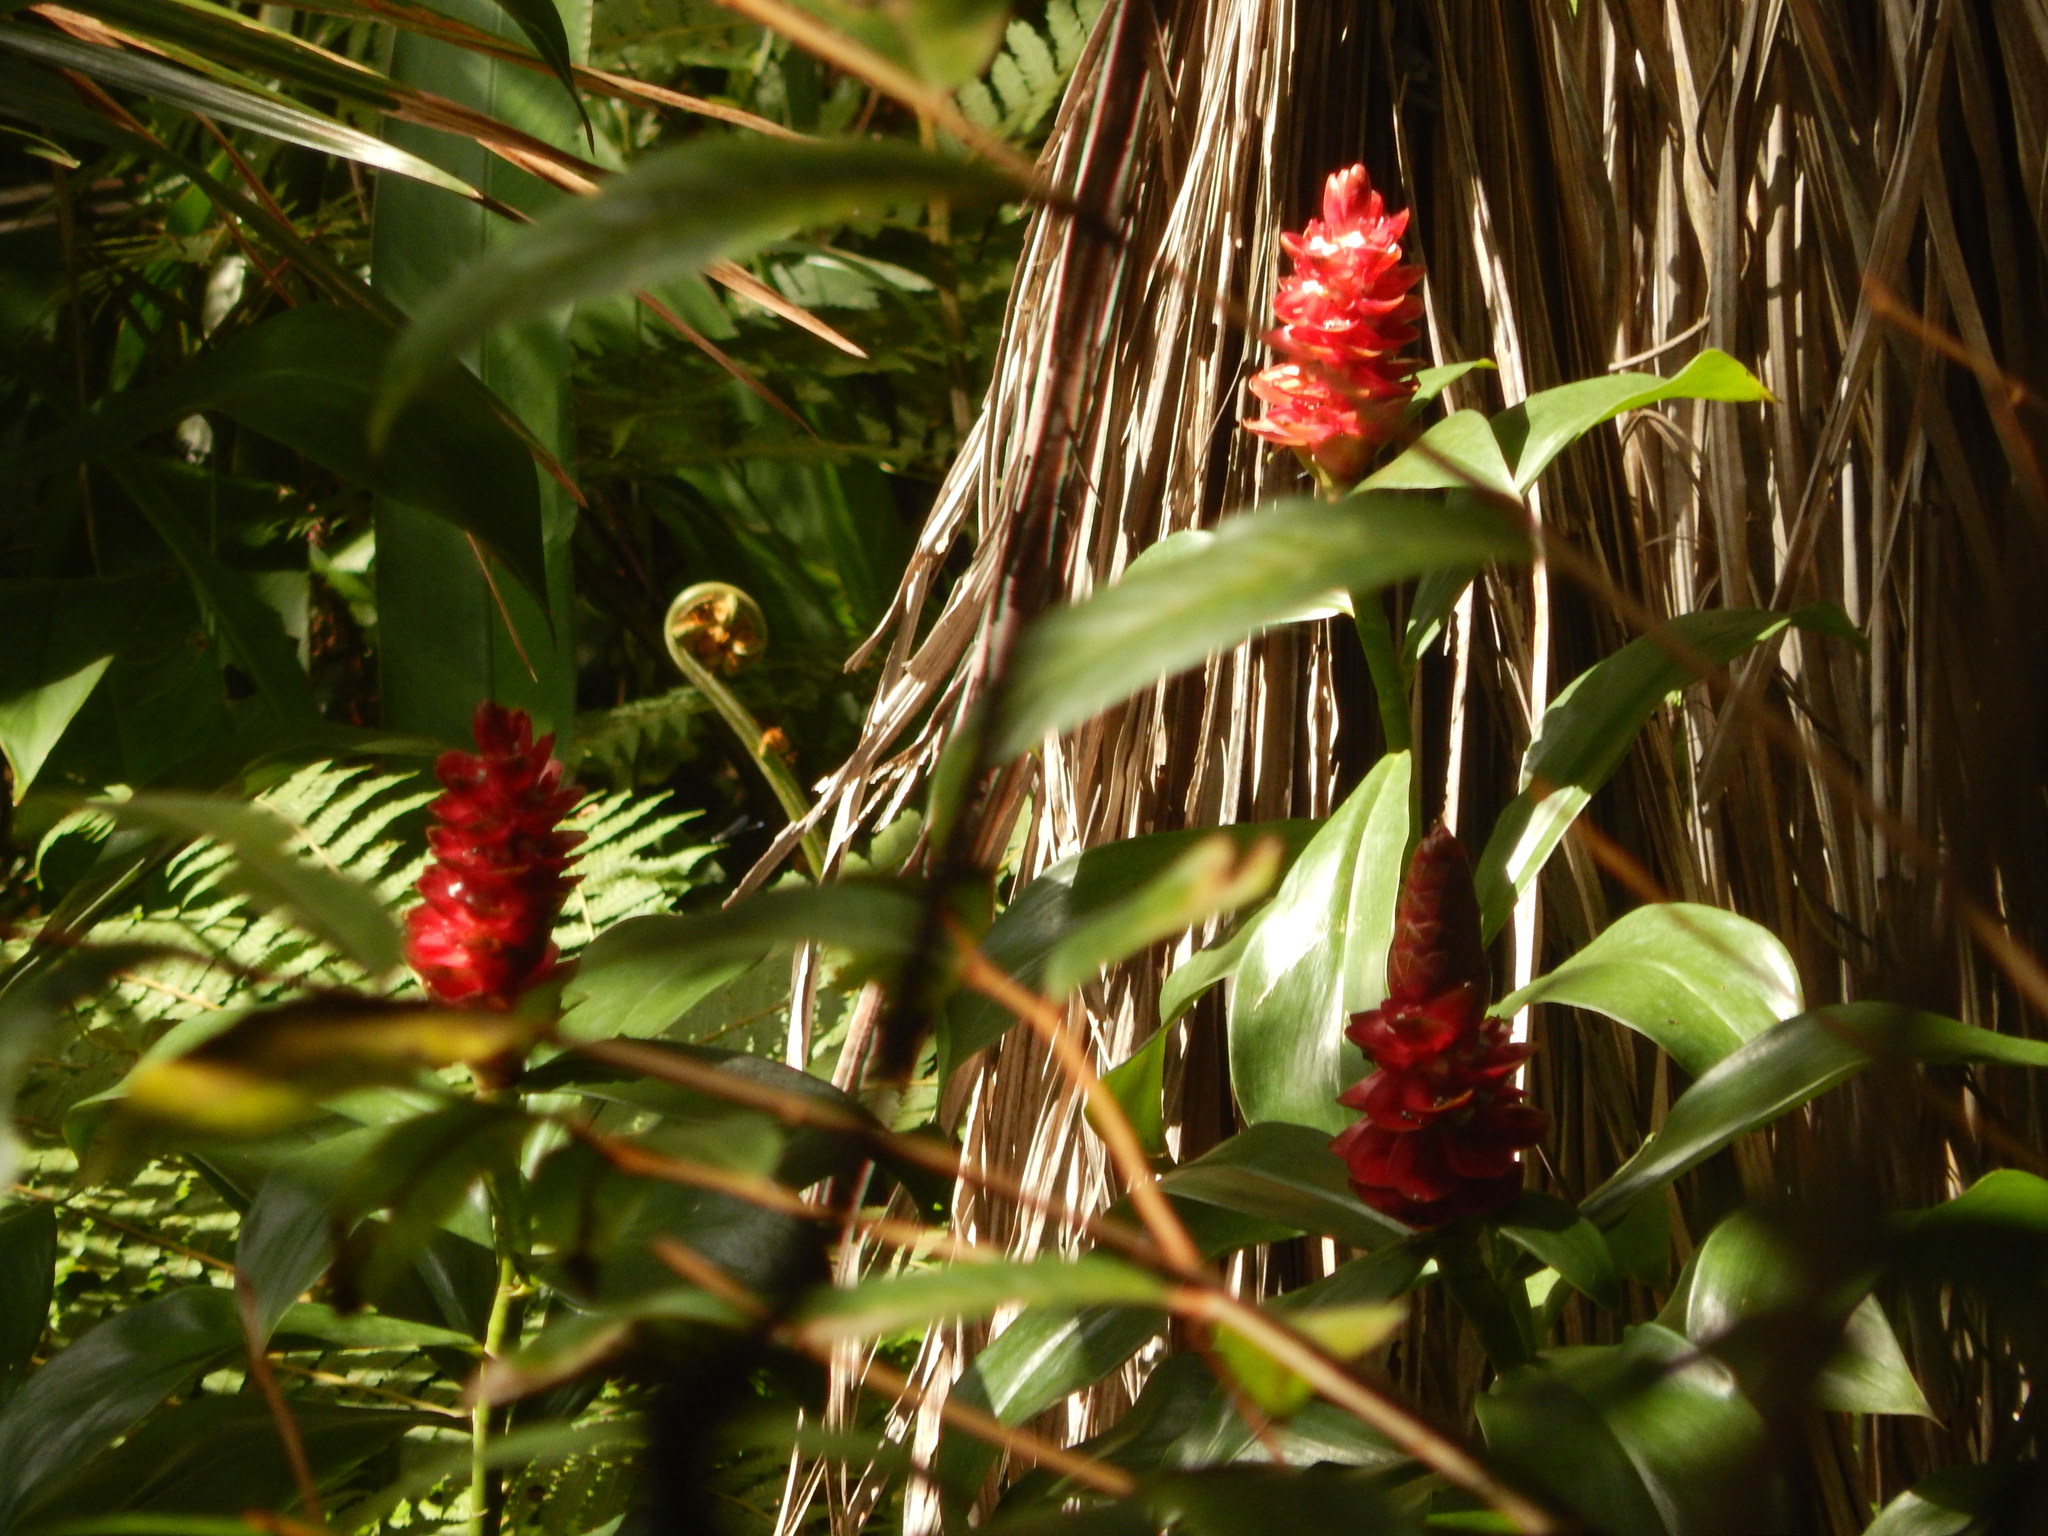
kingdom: Plantae
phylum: Tracheophyta
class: Liliopsida
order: Zingiberales
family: Costaceae
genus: Costus
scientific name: Costus spiralis
